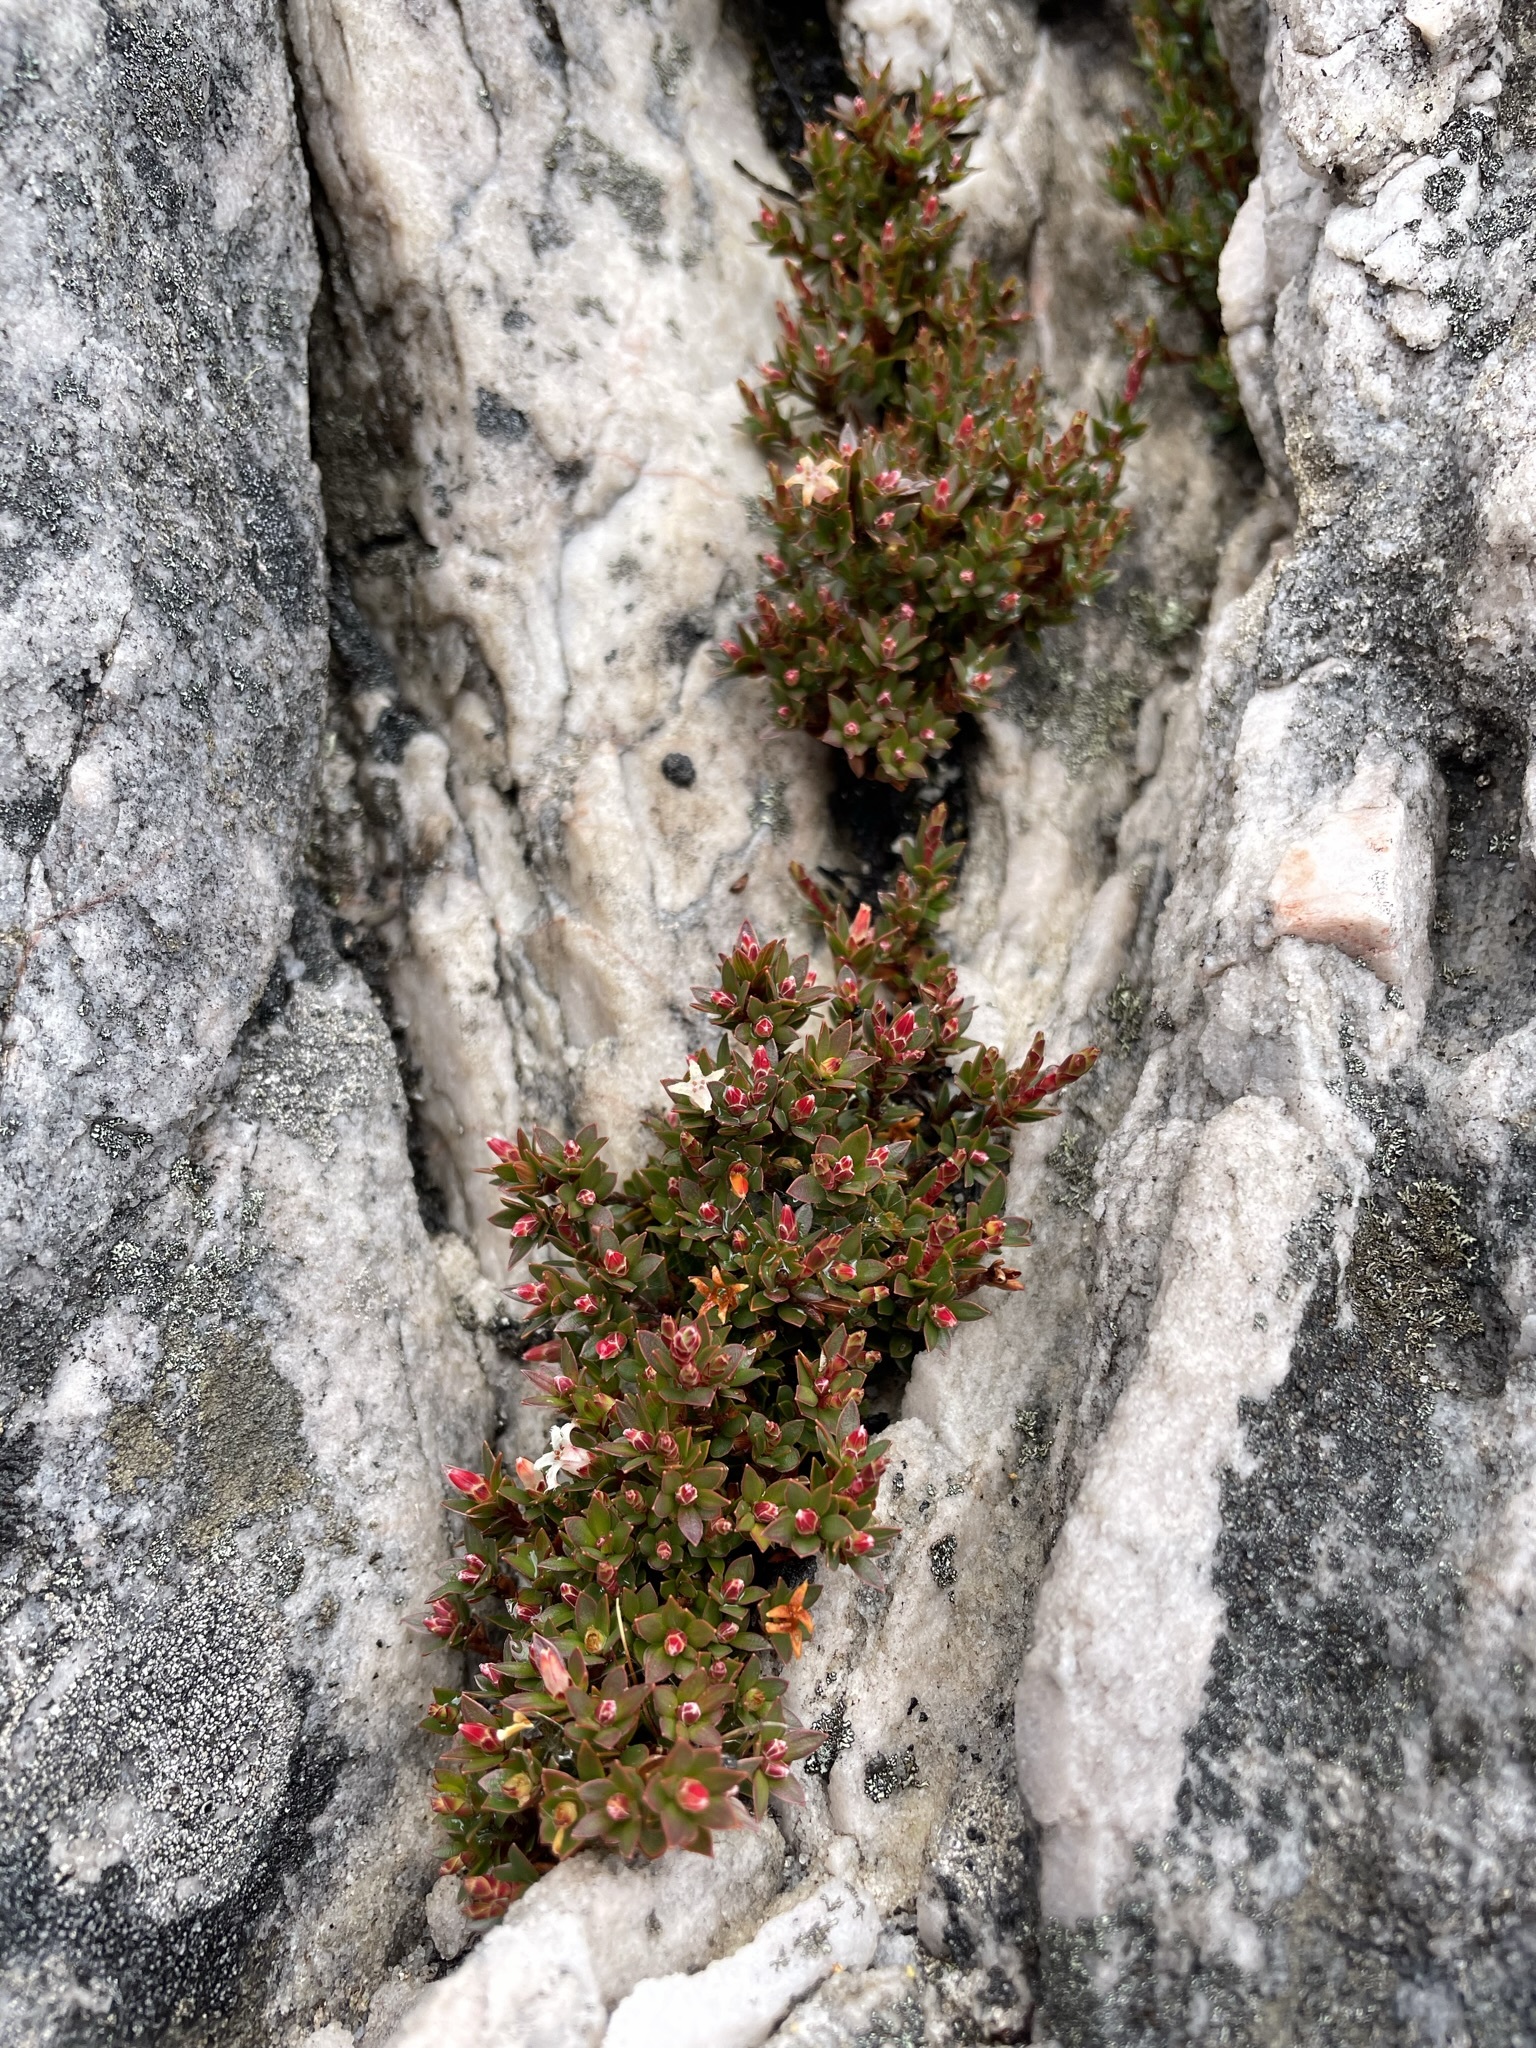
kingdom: Plantae
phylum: Tracheophyta
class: Magnoliopsida
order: Ericales
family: Ericaceae
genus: Pentachondra
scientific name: Pentachondra pumila
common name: Carpet-heath
